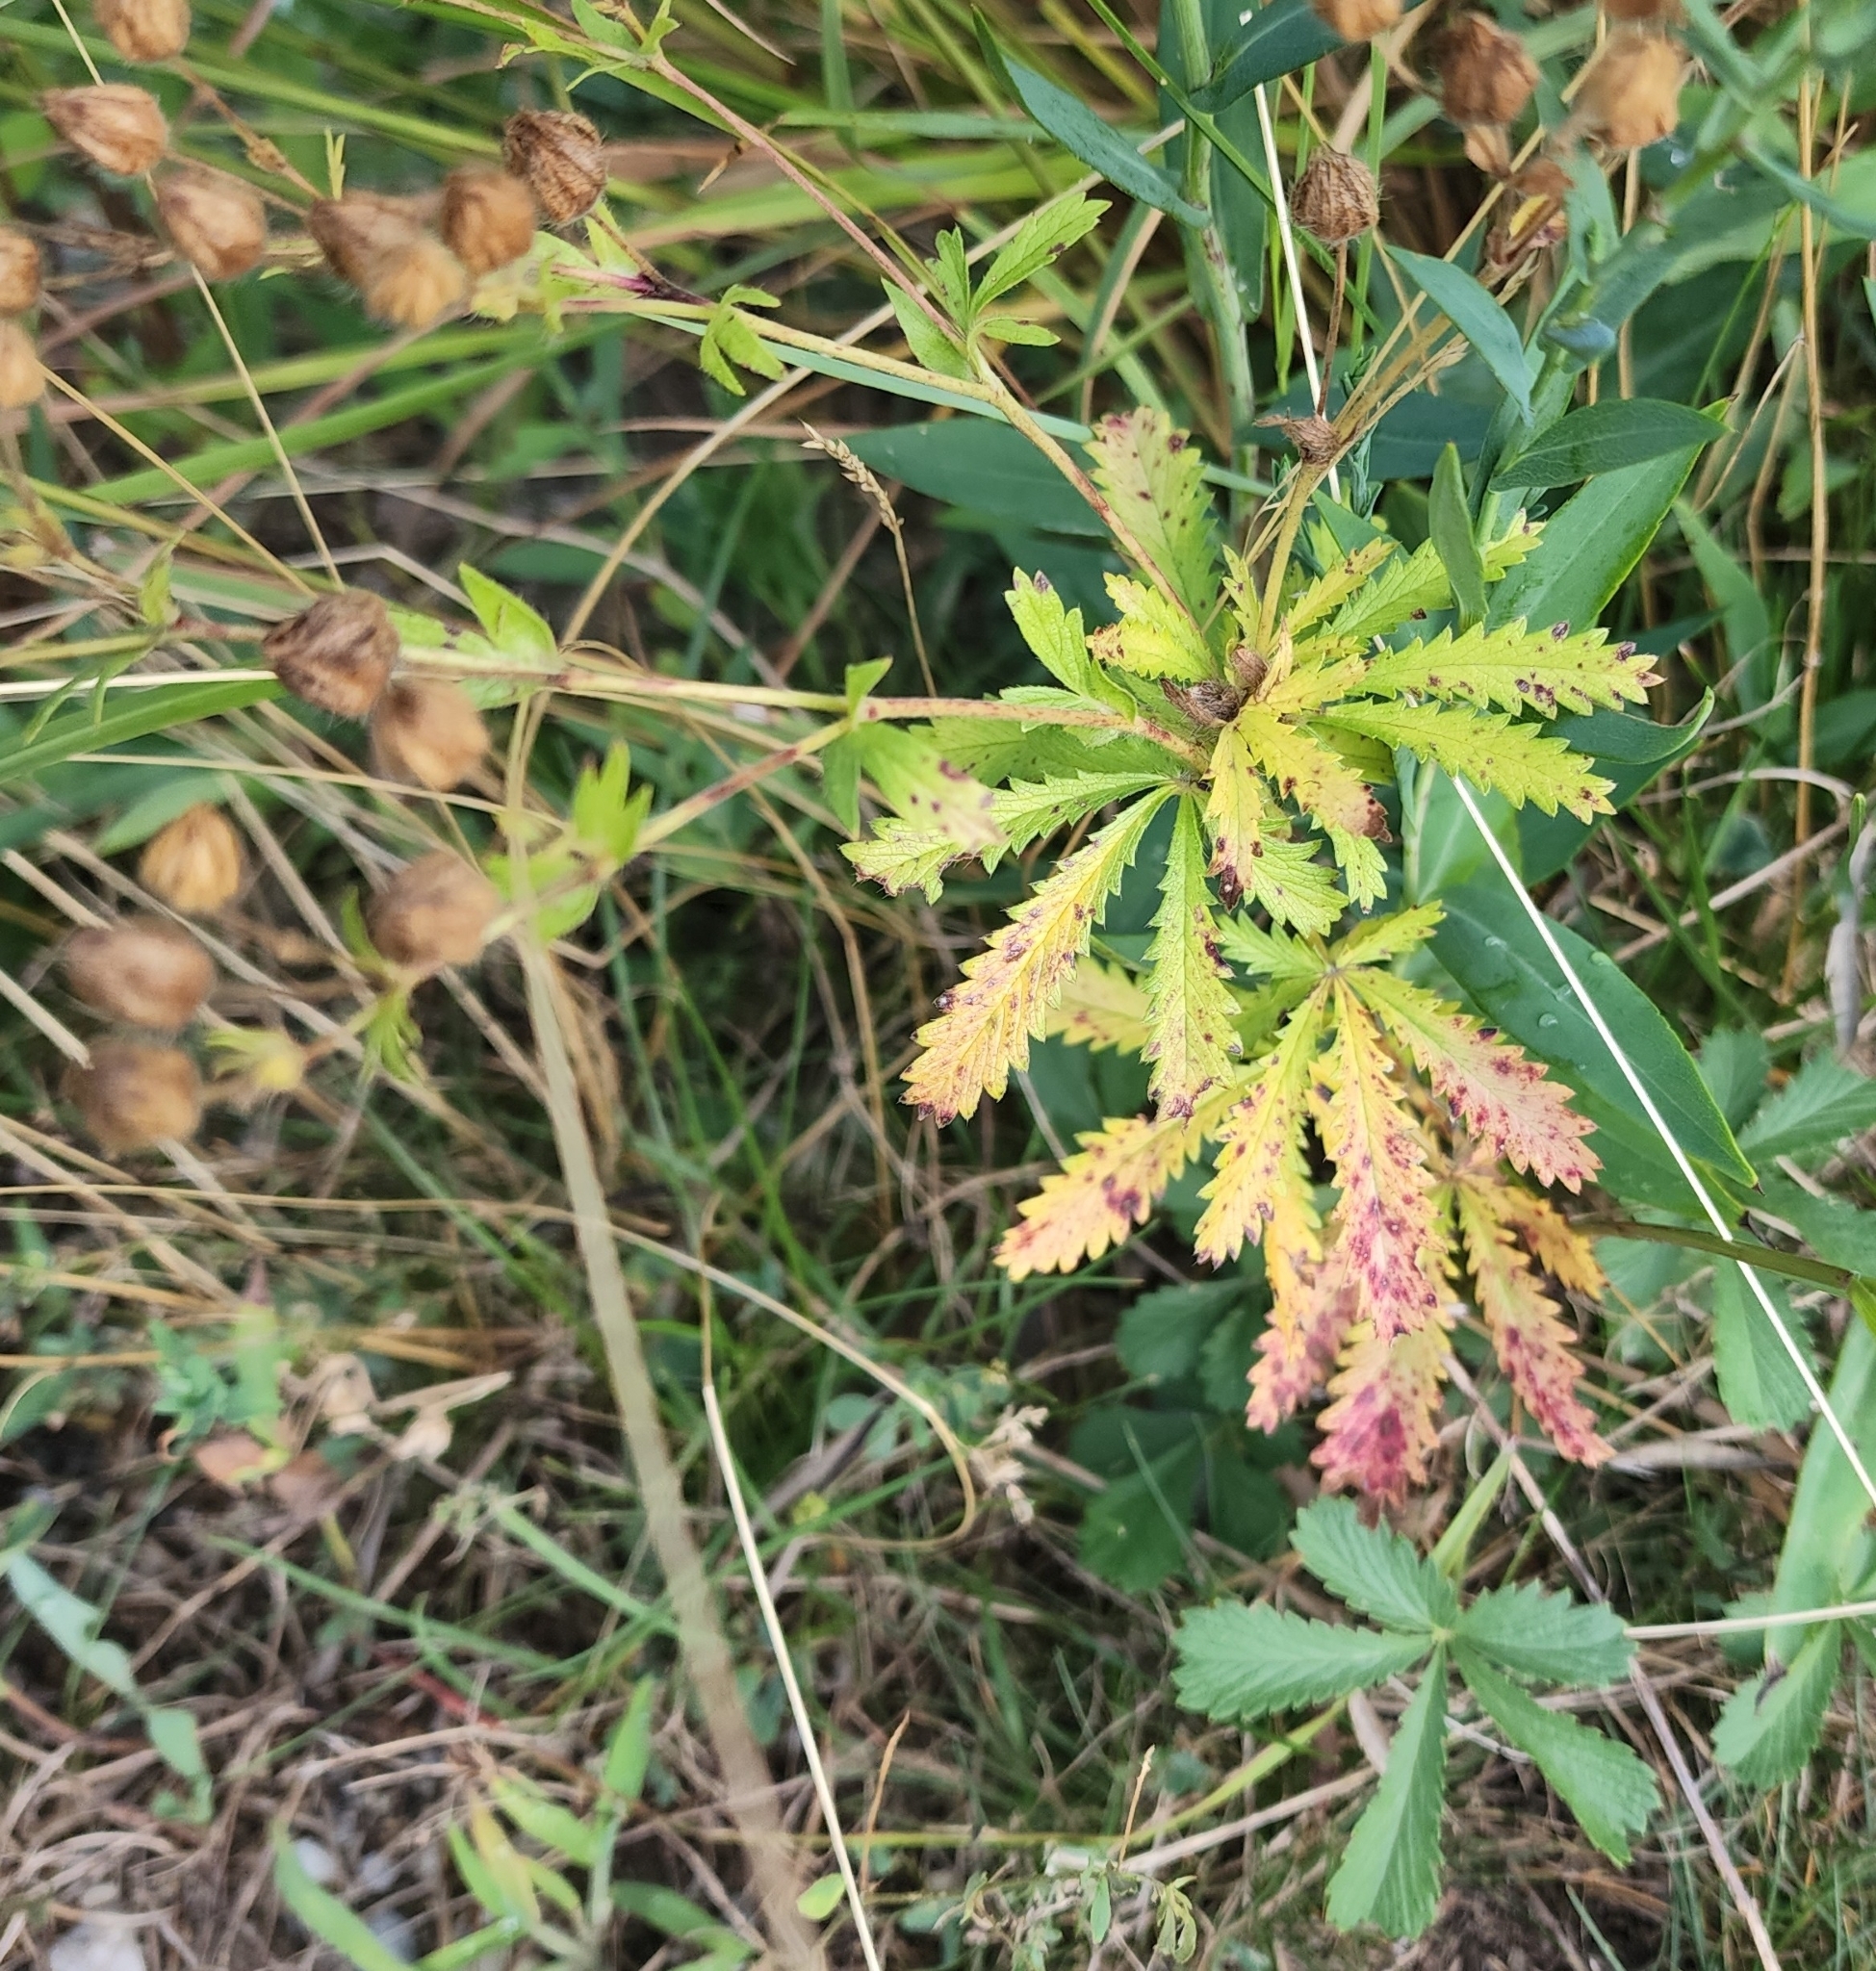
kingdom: Plantae
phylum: Tracheophyta
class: Magnoliopsida
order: Rosales
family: Rosaceae
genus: Potentilla
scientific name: Potentilla recta
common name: Sulphur cinquefoil
